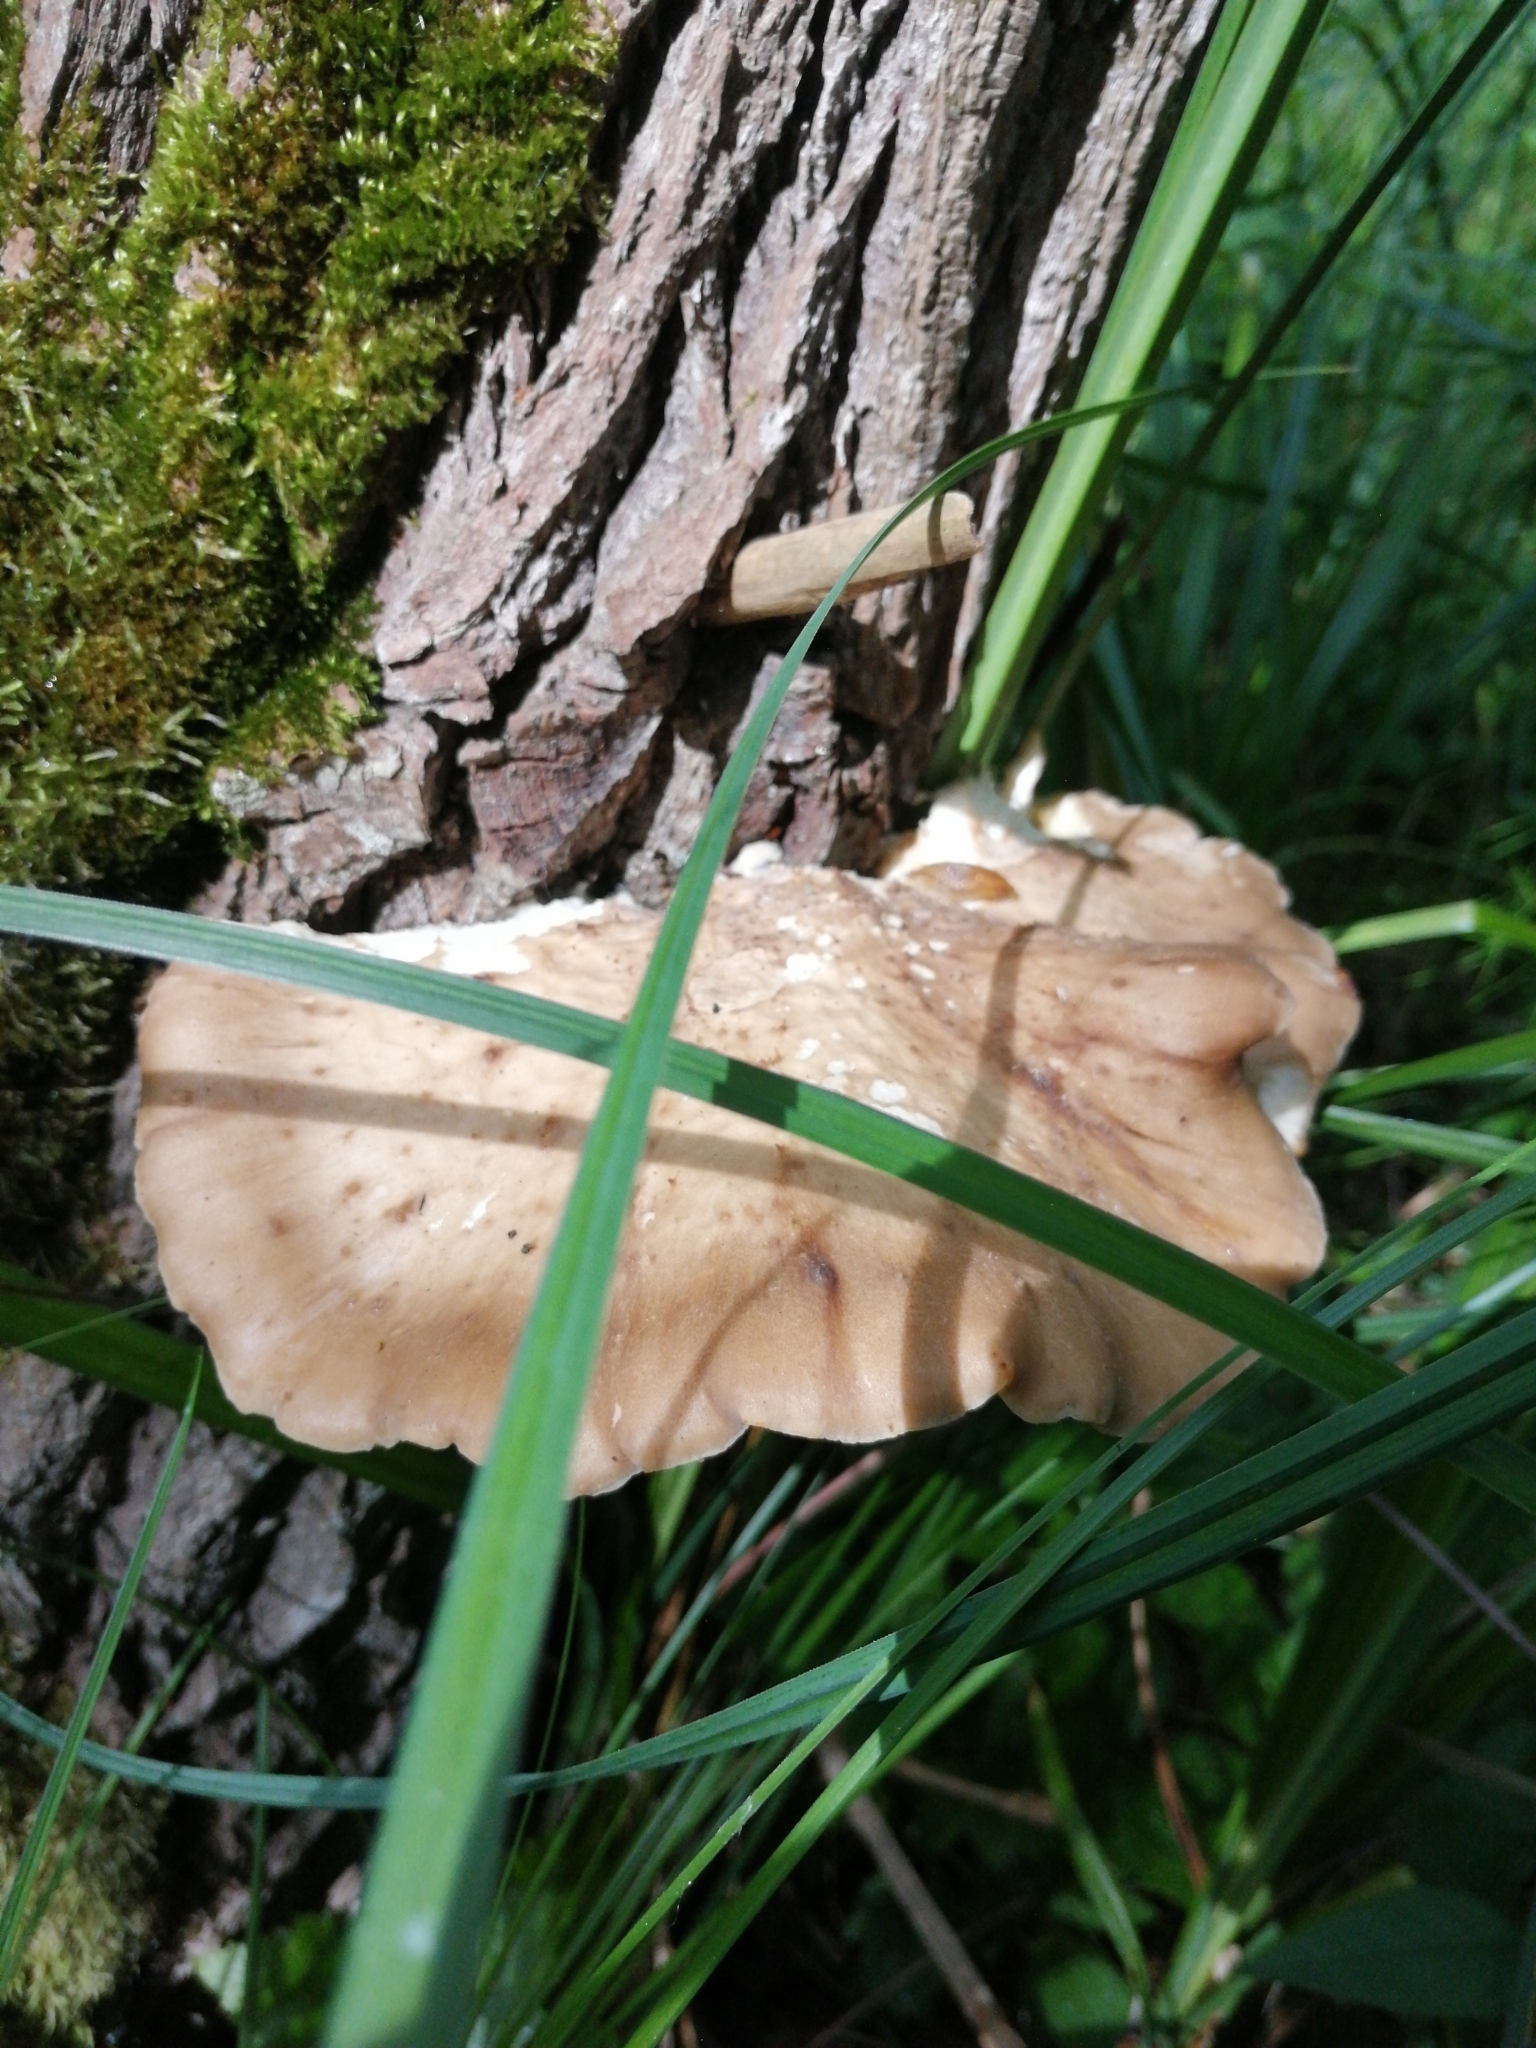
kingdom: Fungi
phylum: Basidiomycota
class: Agaricomycetes
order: Polyporales
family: Polyporaceae
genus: Polyporus
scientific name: Polyporus tuberaster
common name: Tuberous polypore
